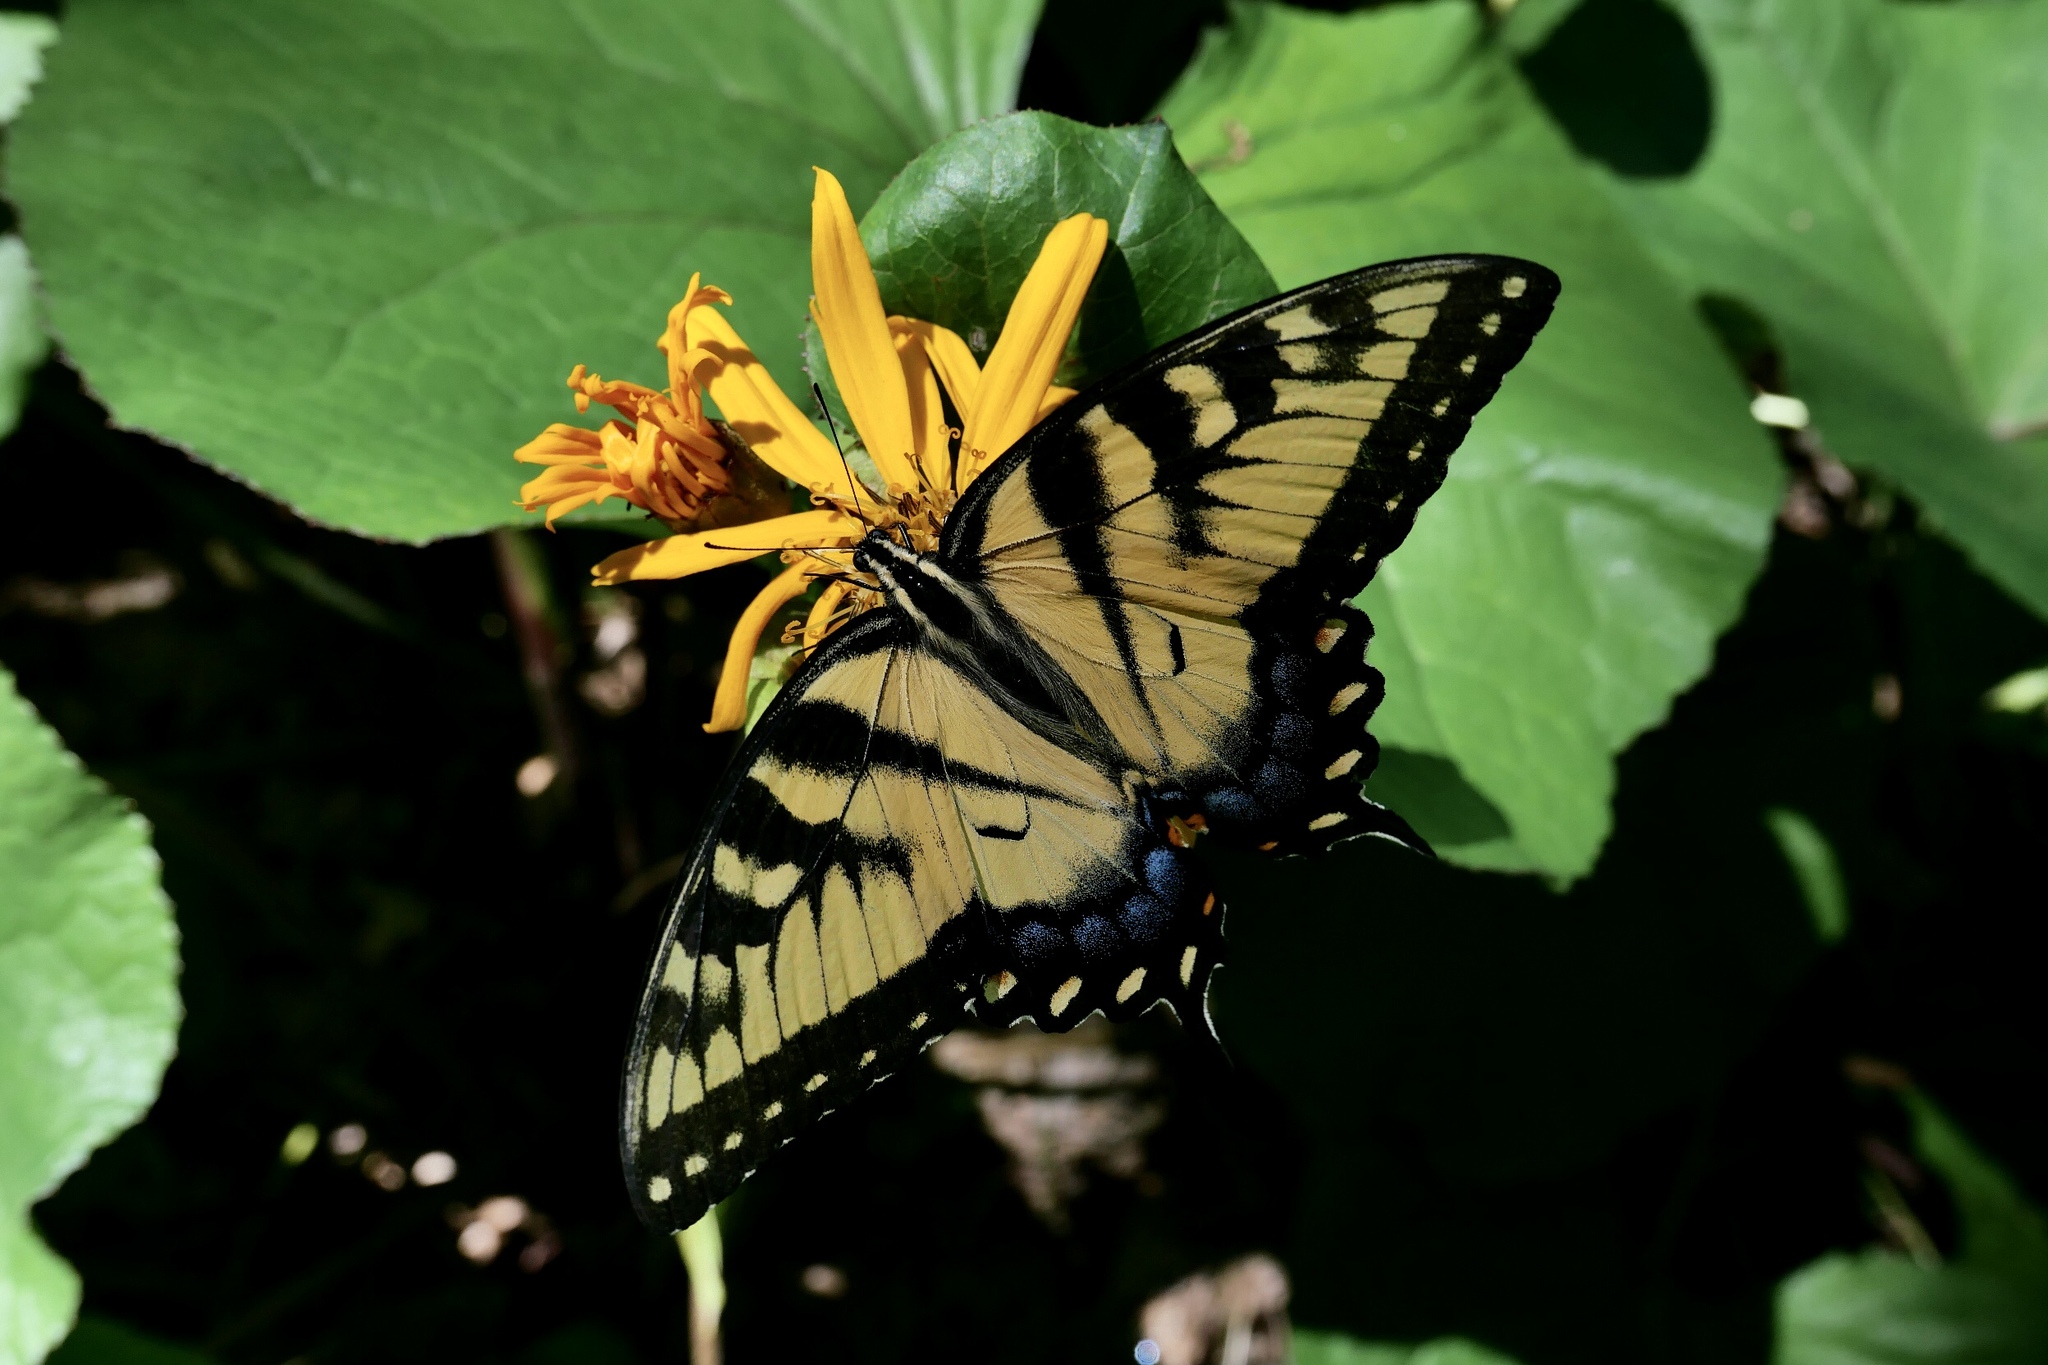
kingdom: Animalia
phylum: Arthropoda
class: Insecta
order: Lepidoptera
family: Papilionidae
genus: Papilio
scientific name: Papilio glaucus
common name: Tiger swallowtail
